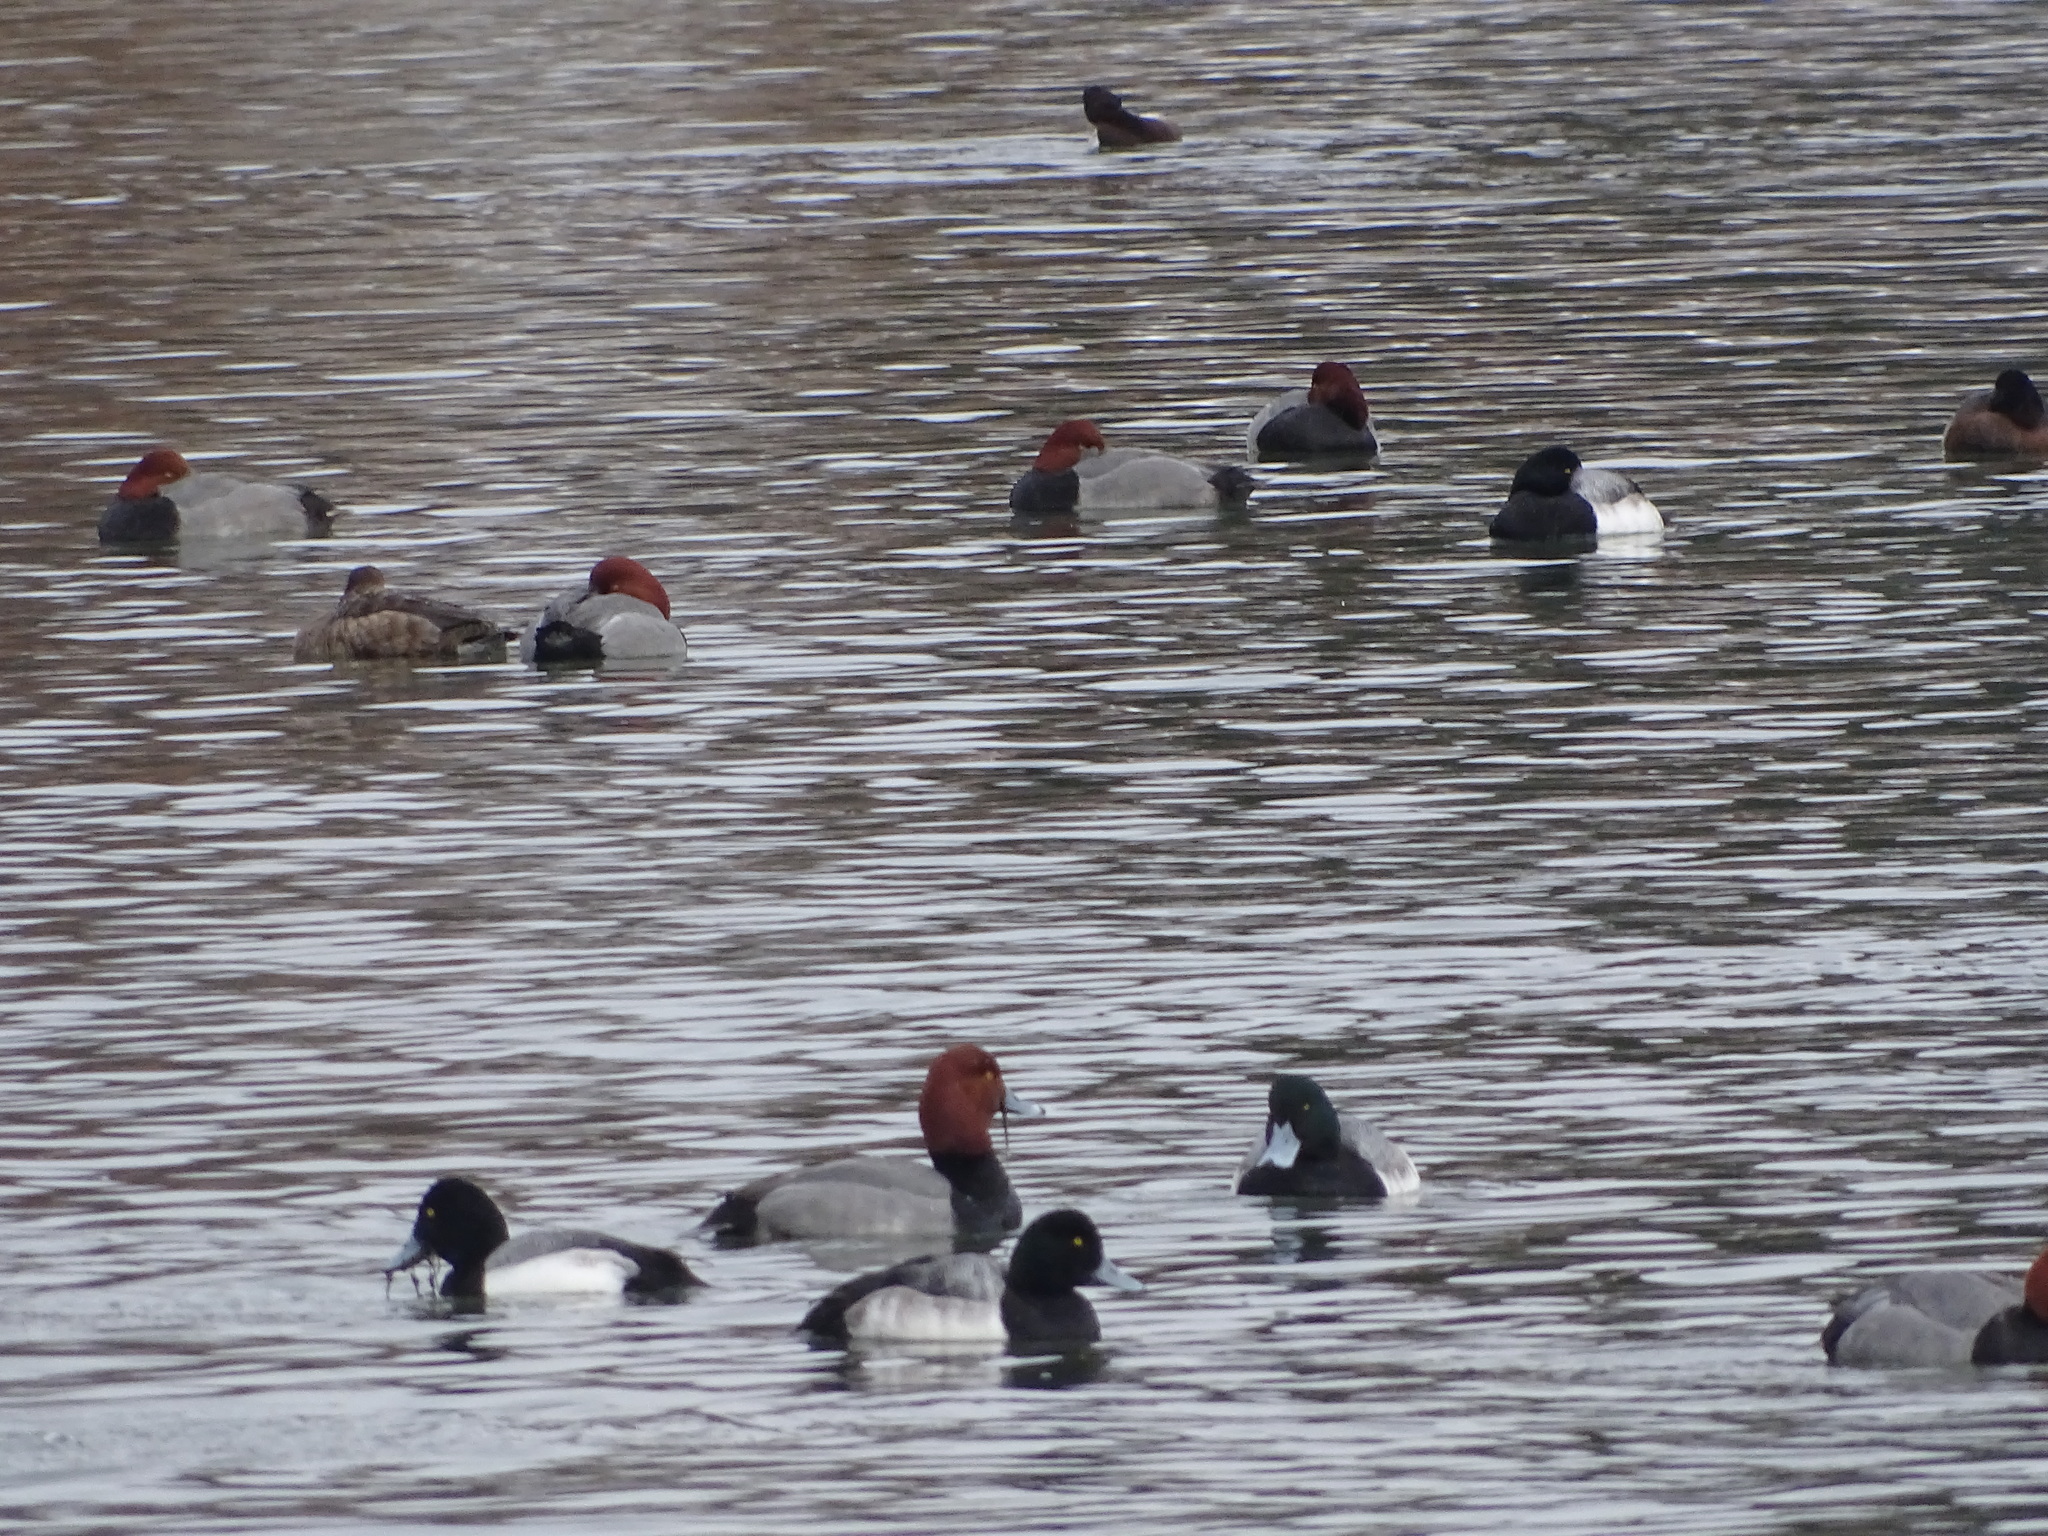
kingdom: Animalia
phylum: Chordata
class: Aves
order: Anseriformes
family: Anatidae
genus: Aythya
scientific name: Aythya marila
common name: Greater scaup
